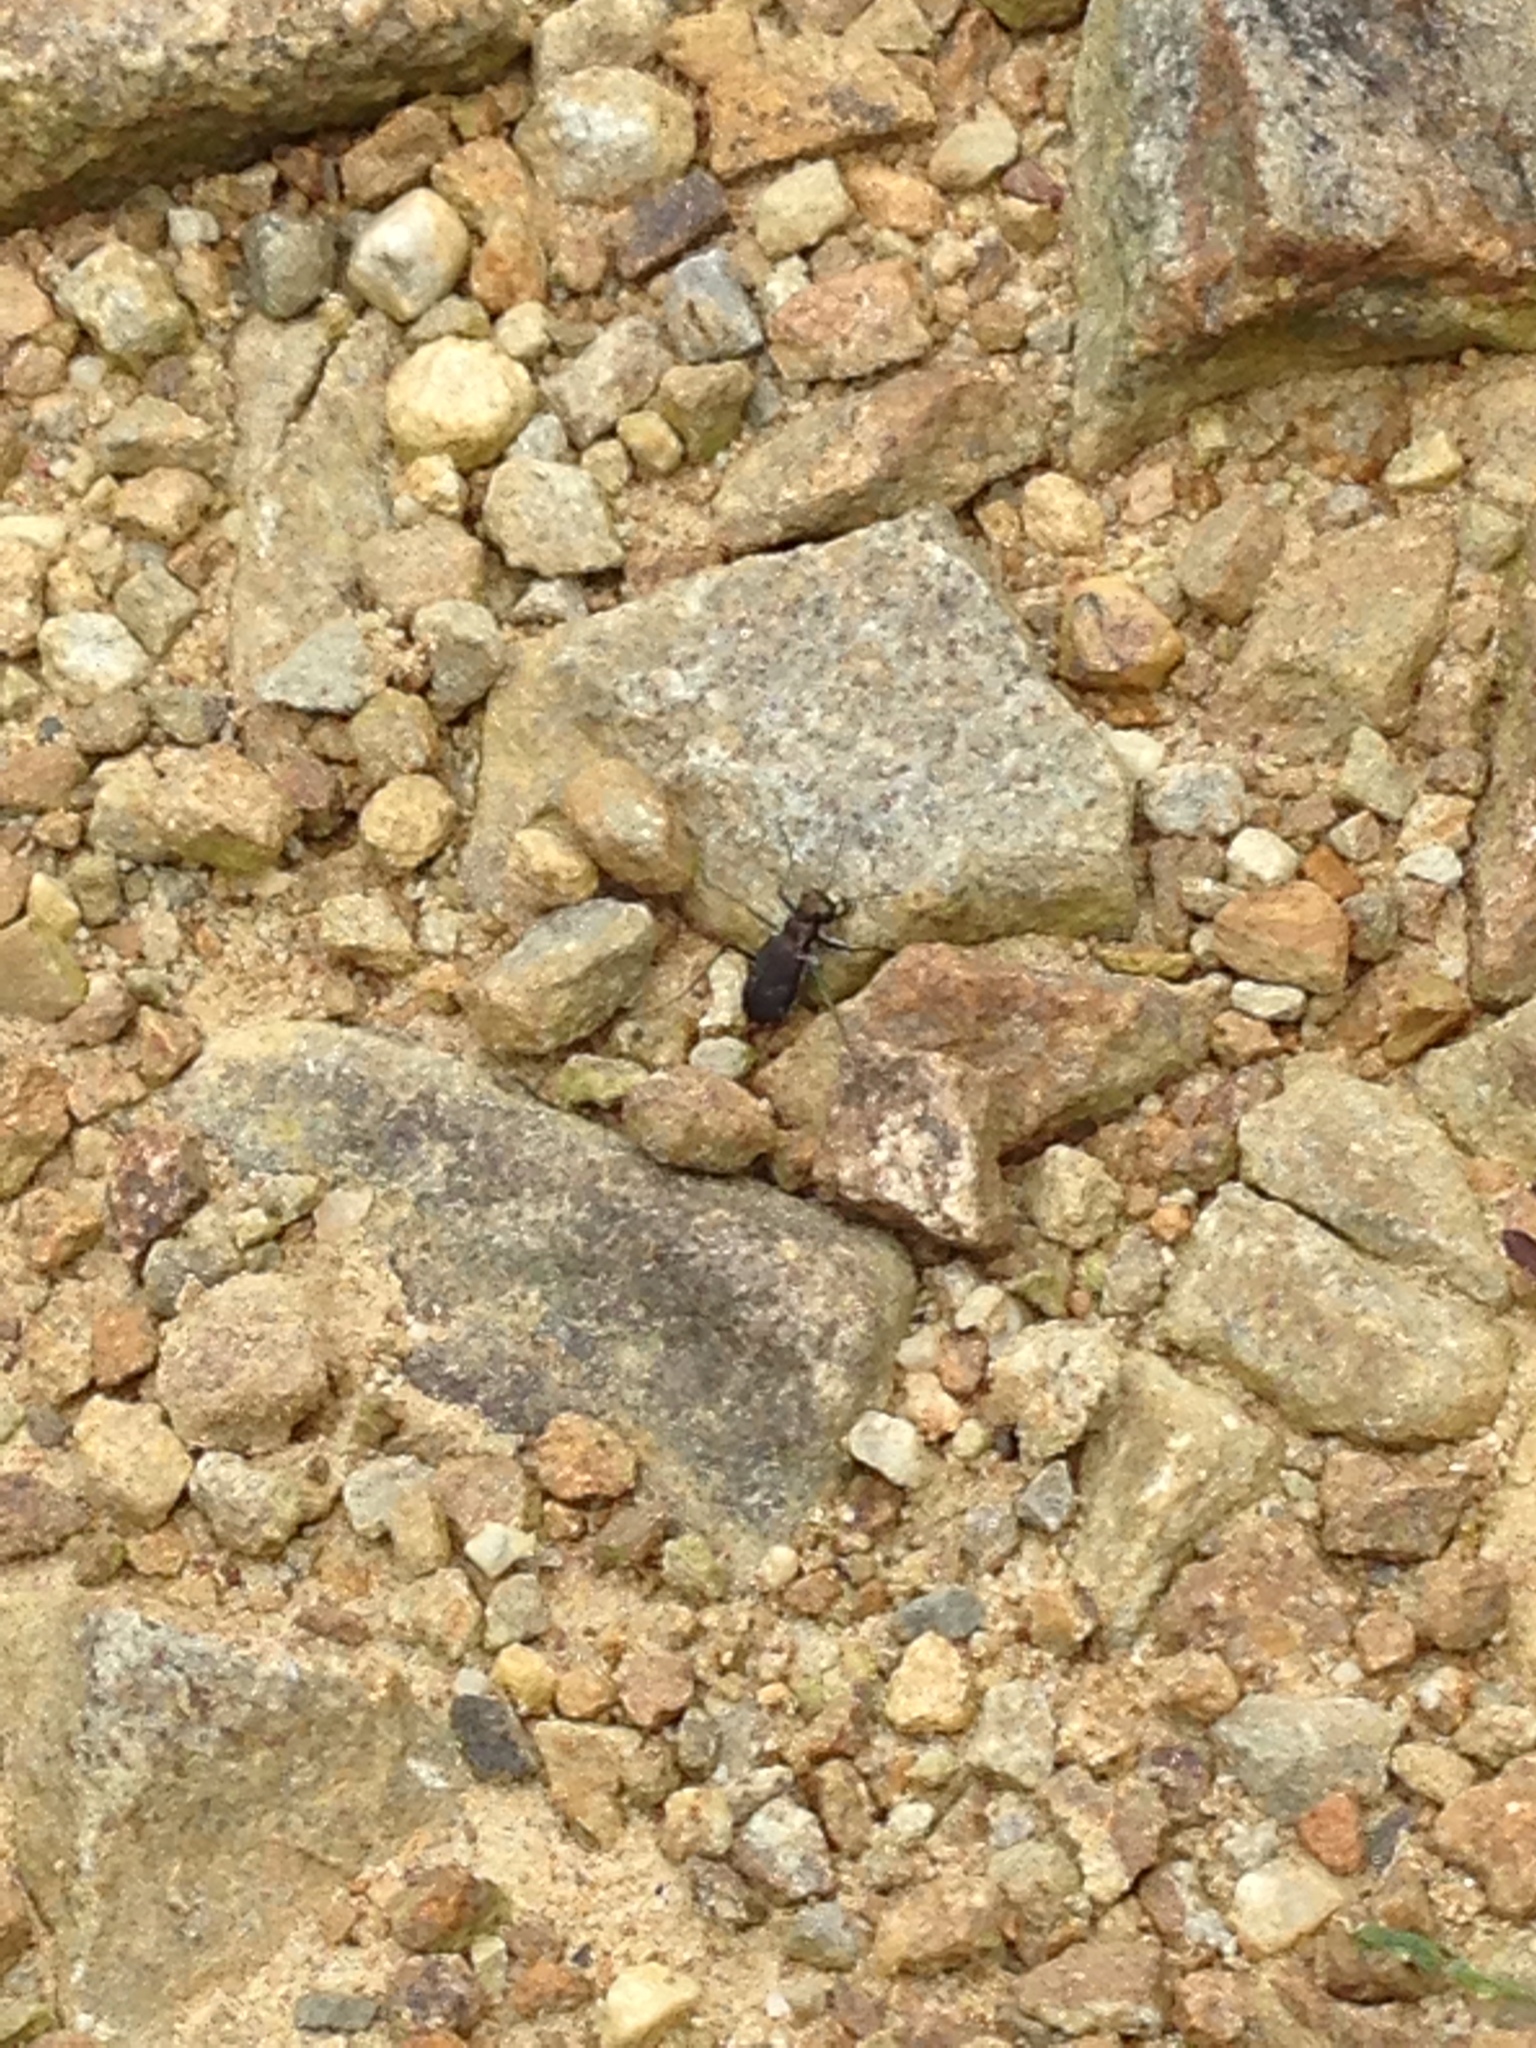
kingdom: Animalia
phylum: Arthropoda
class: Insecta
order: Coleoptera
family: Carabidae
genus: Cicindela
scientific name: Cicindela rufiventris
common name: Eastern red-bellied tiger beetle
